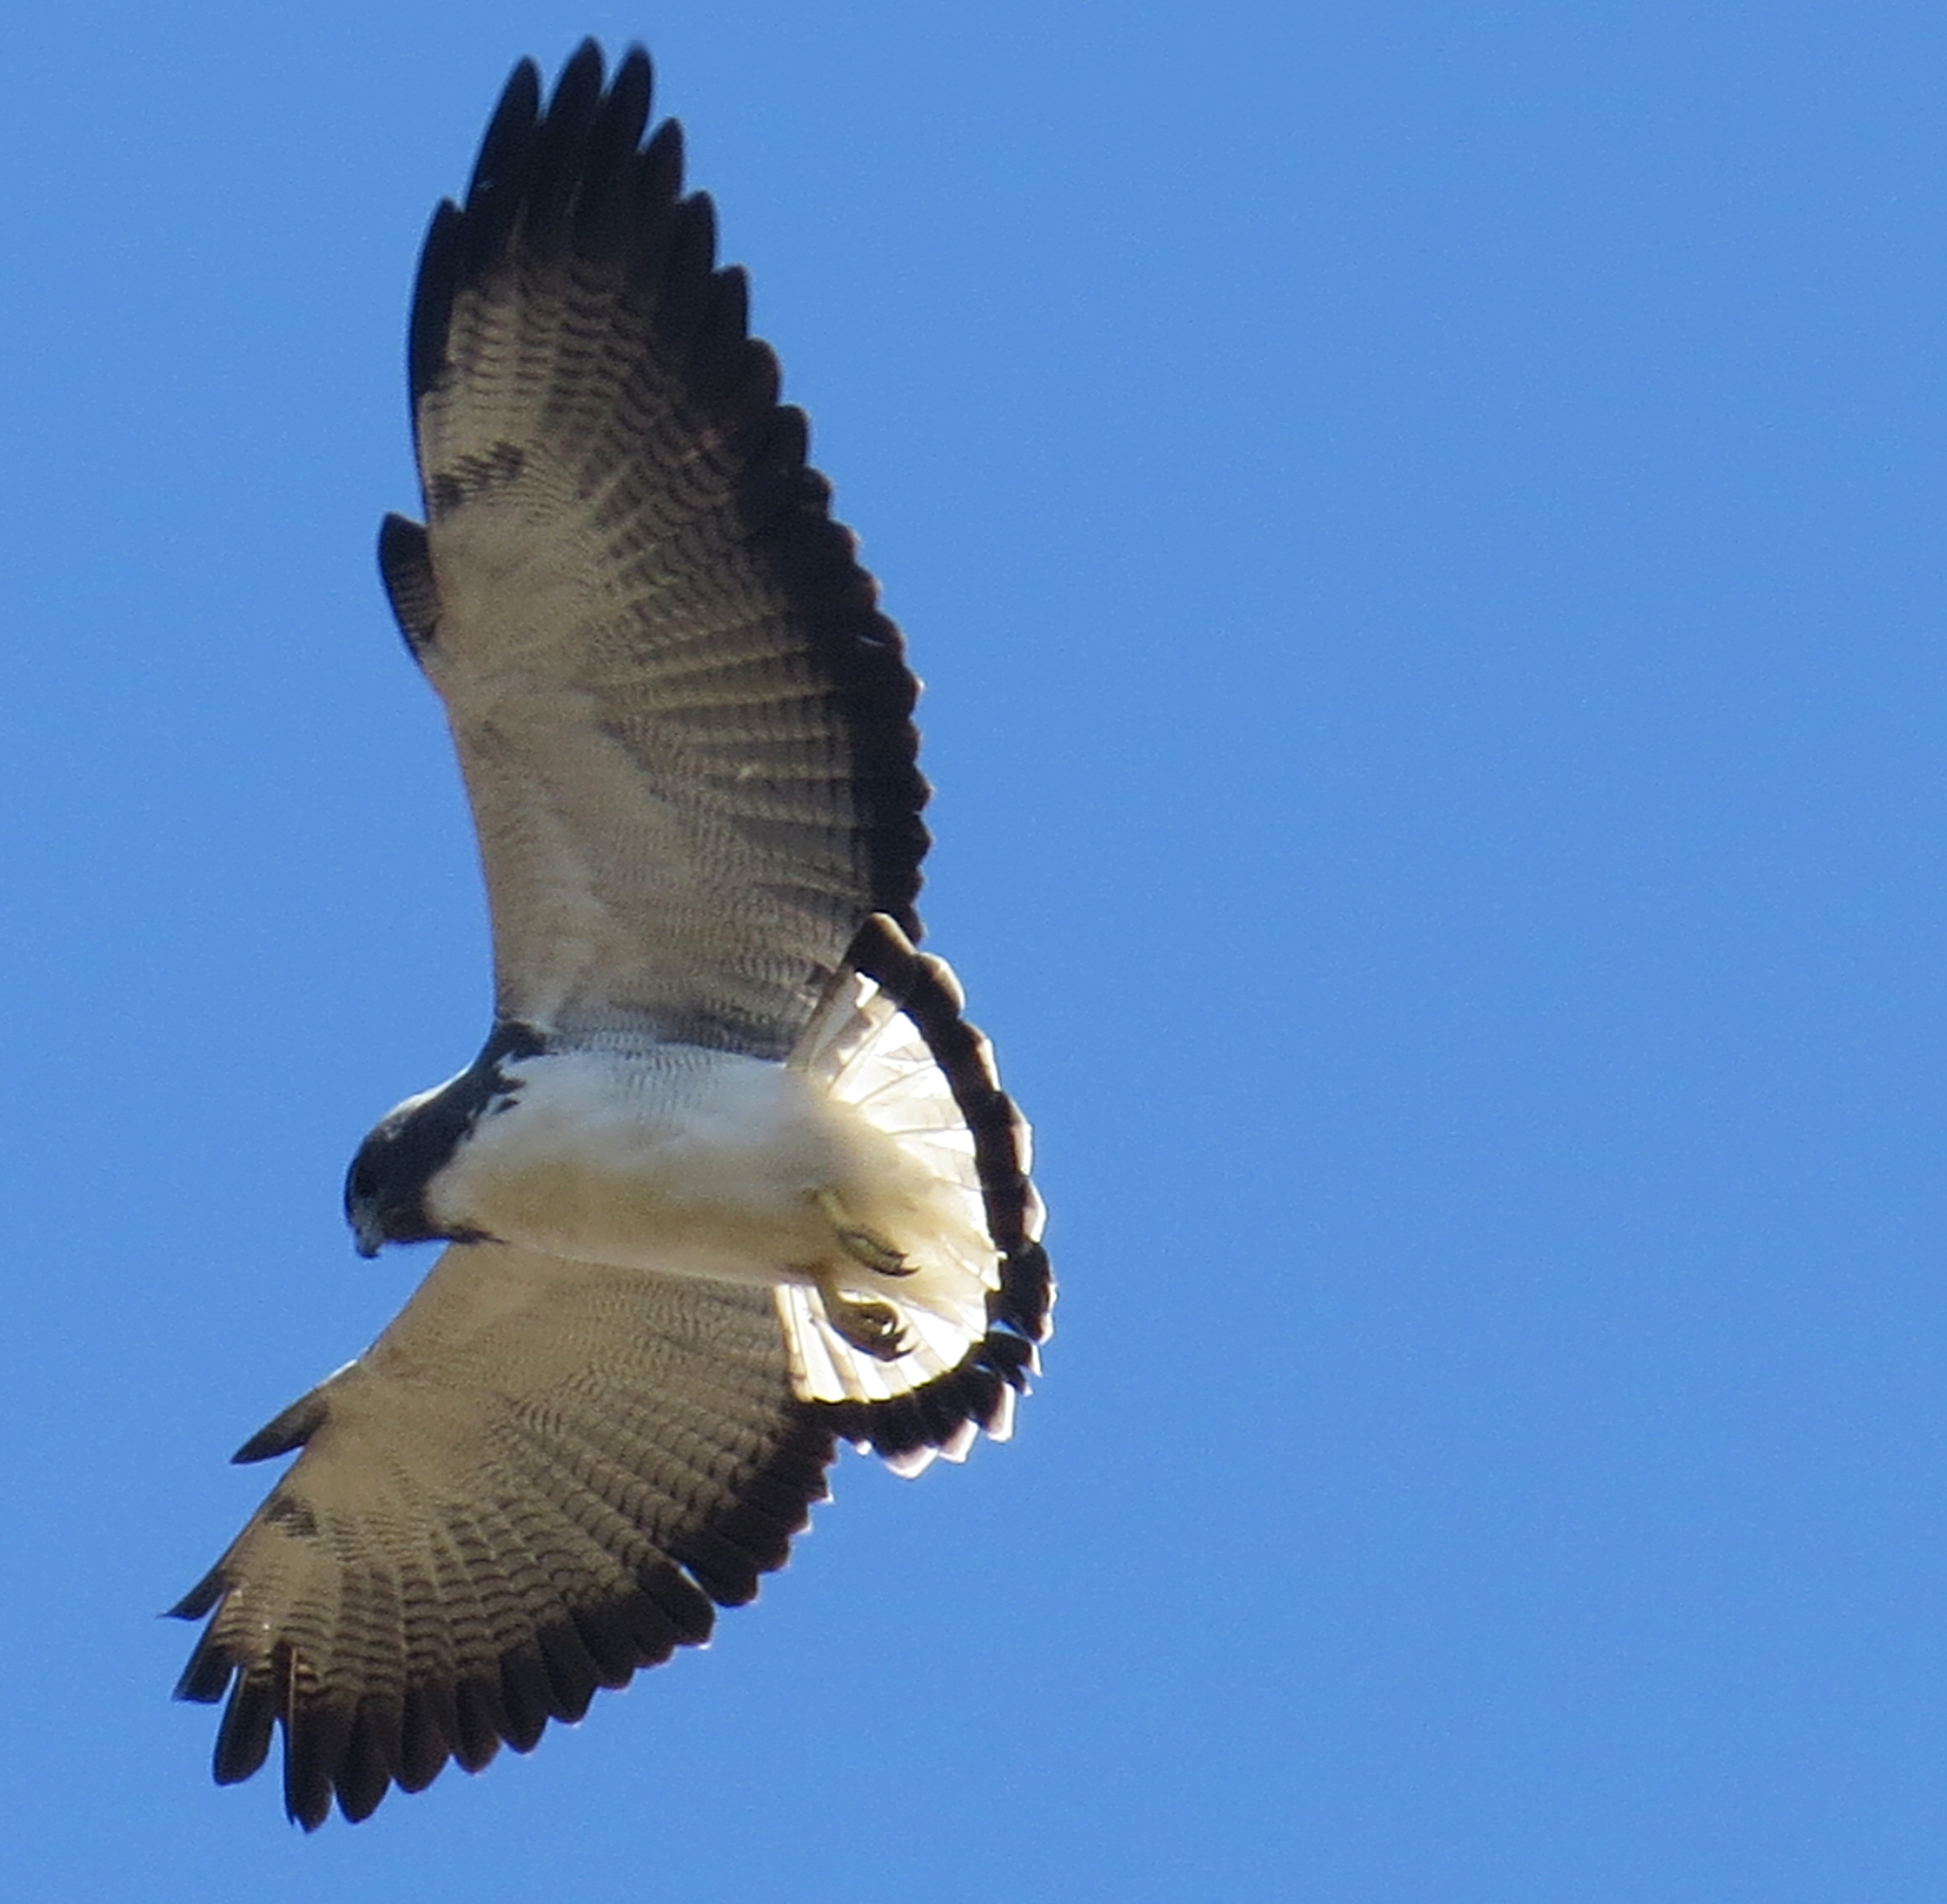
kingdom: Animalia
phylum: Chordata
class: Aves
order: Accipitriformes
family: Accipitridae
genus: Buteo
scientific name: Buteo albicaudatus
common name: White-tailed hawk
